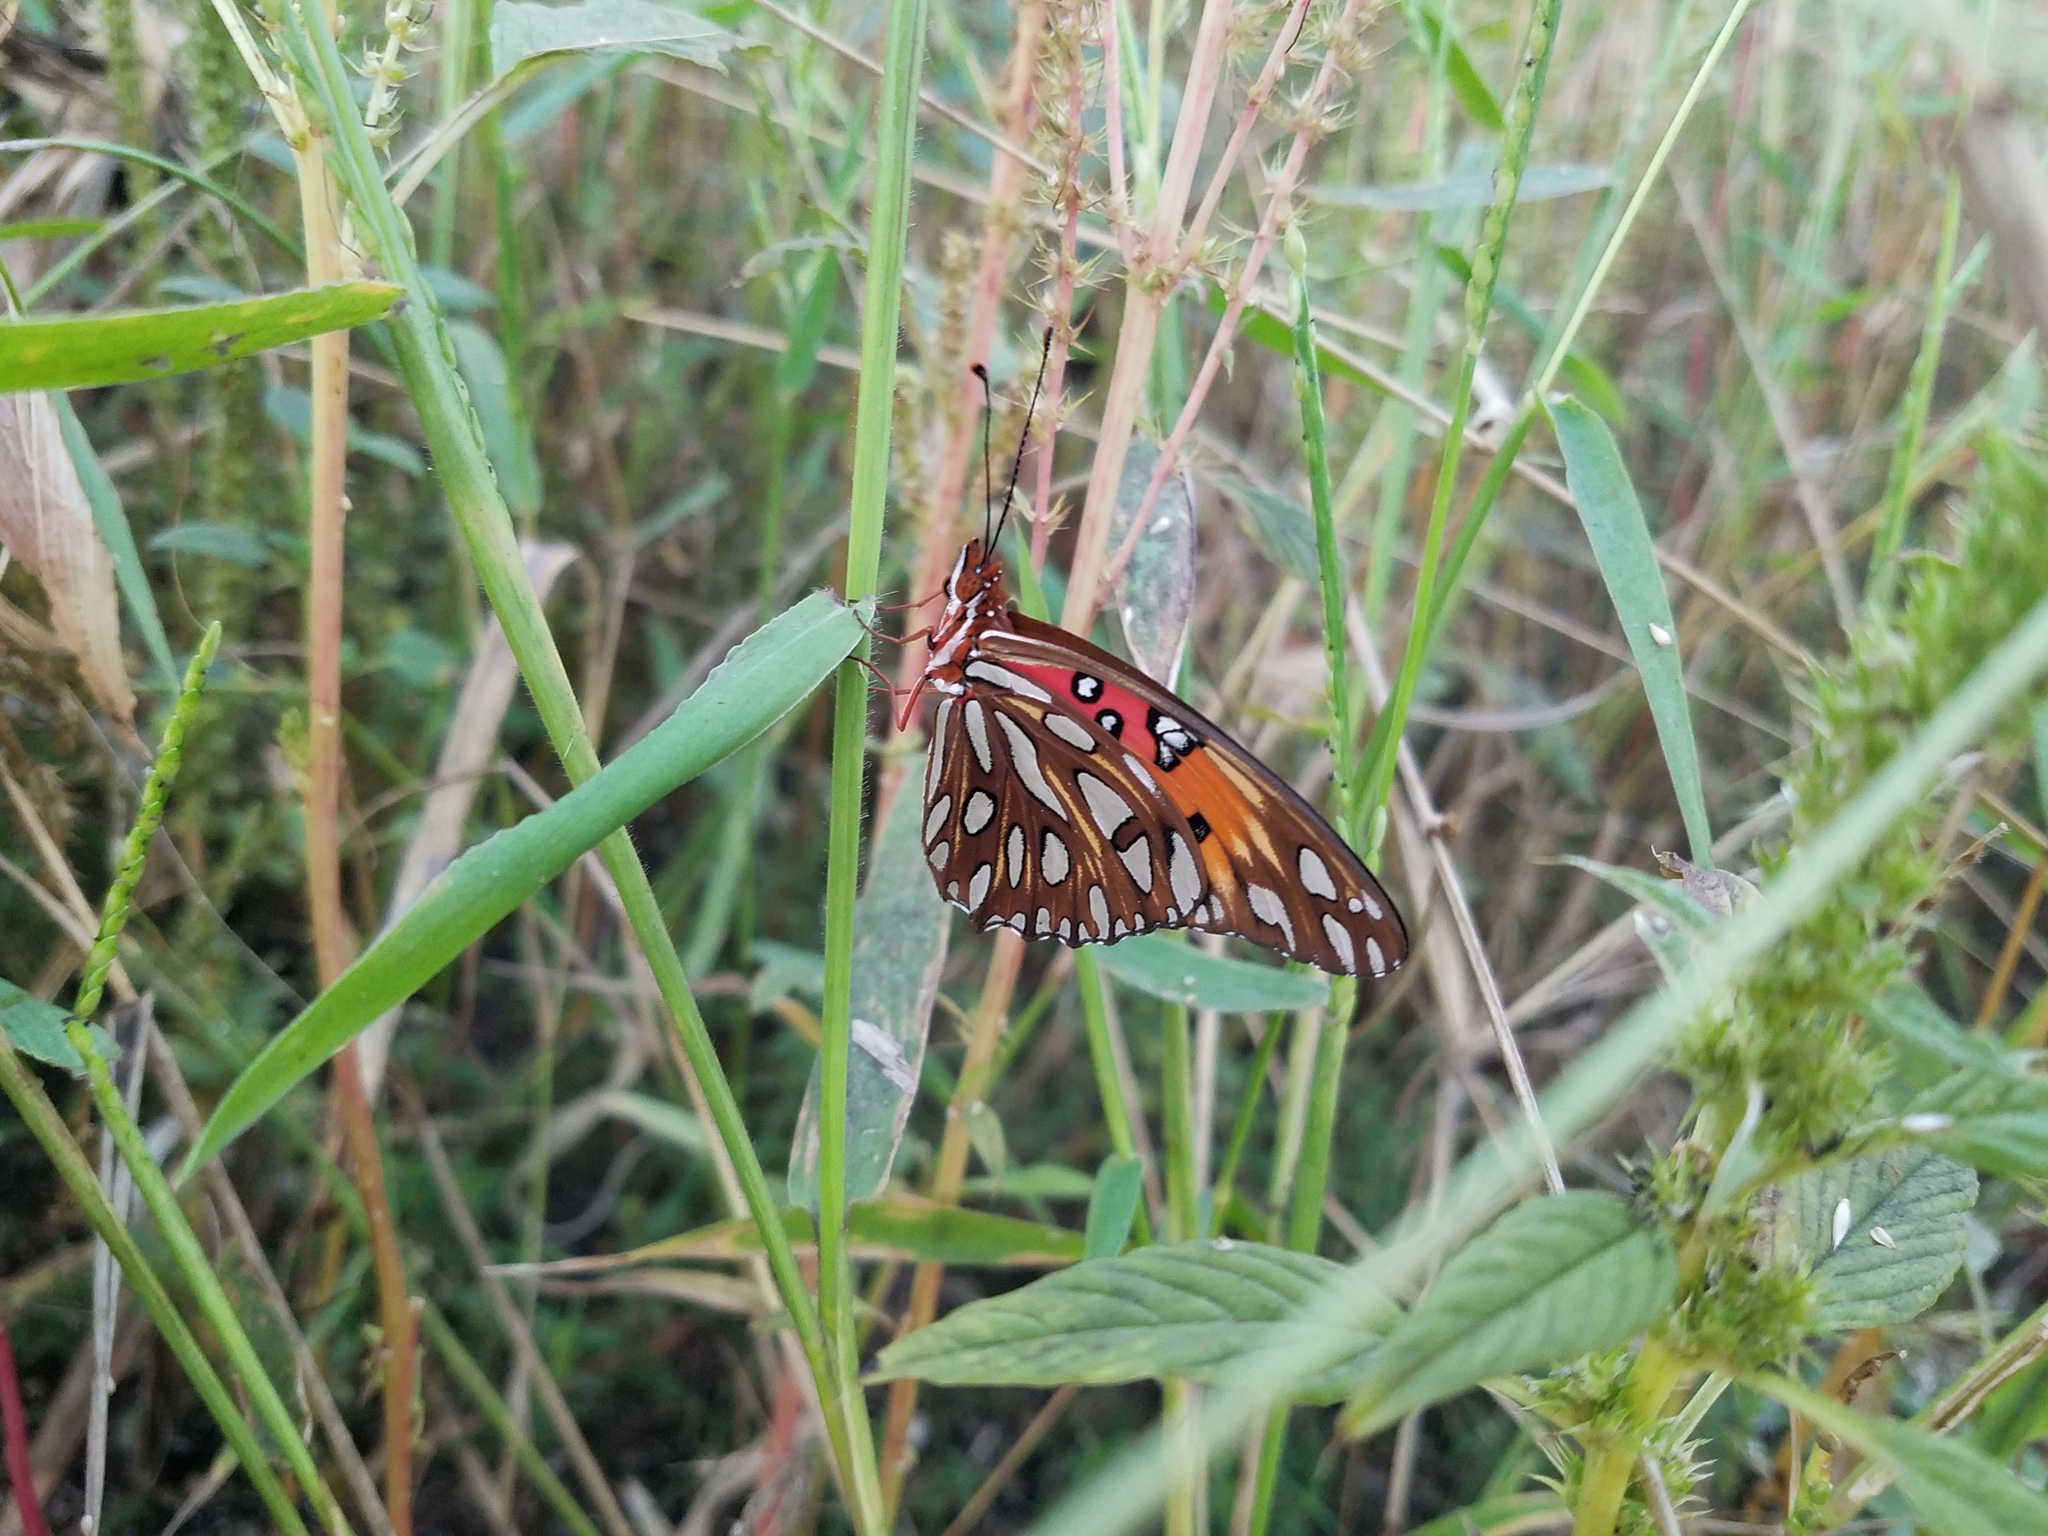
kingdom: Animalia
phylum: Arthropoda
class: Insecta
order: Lepidoptera
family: Nymphalidae
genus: Dione
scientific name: Dione vanillae
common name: Gulf fritillary
